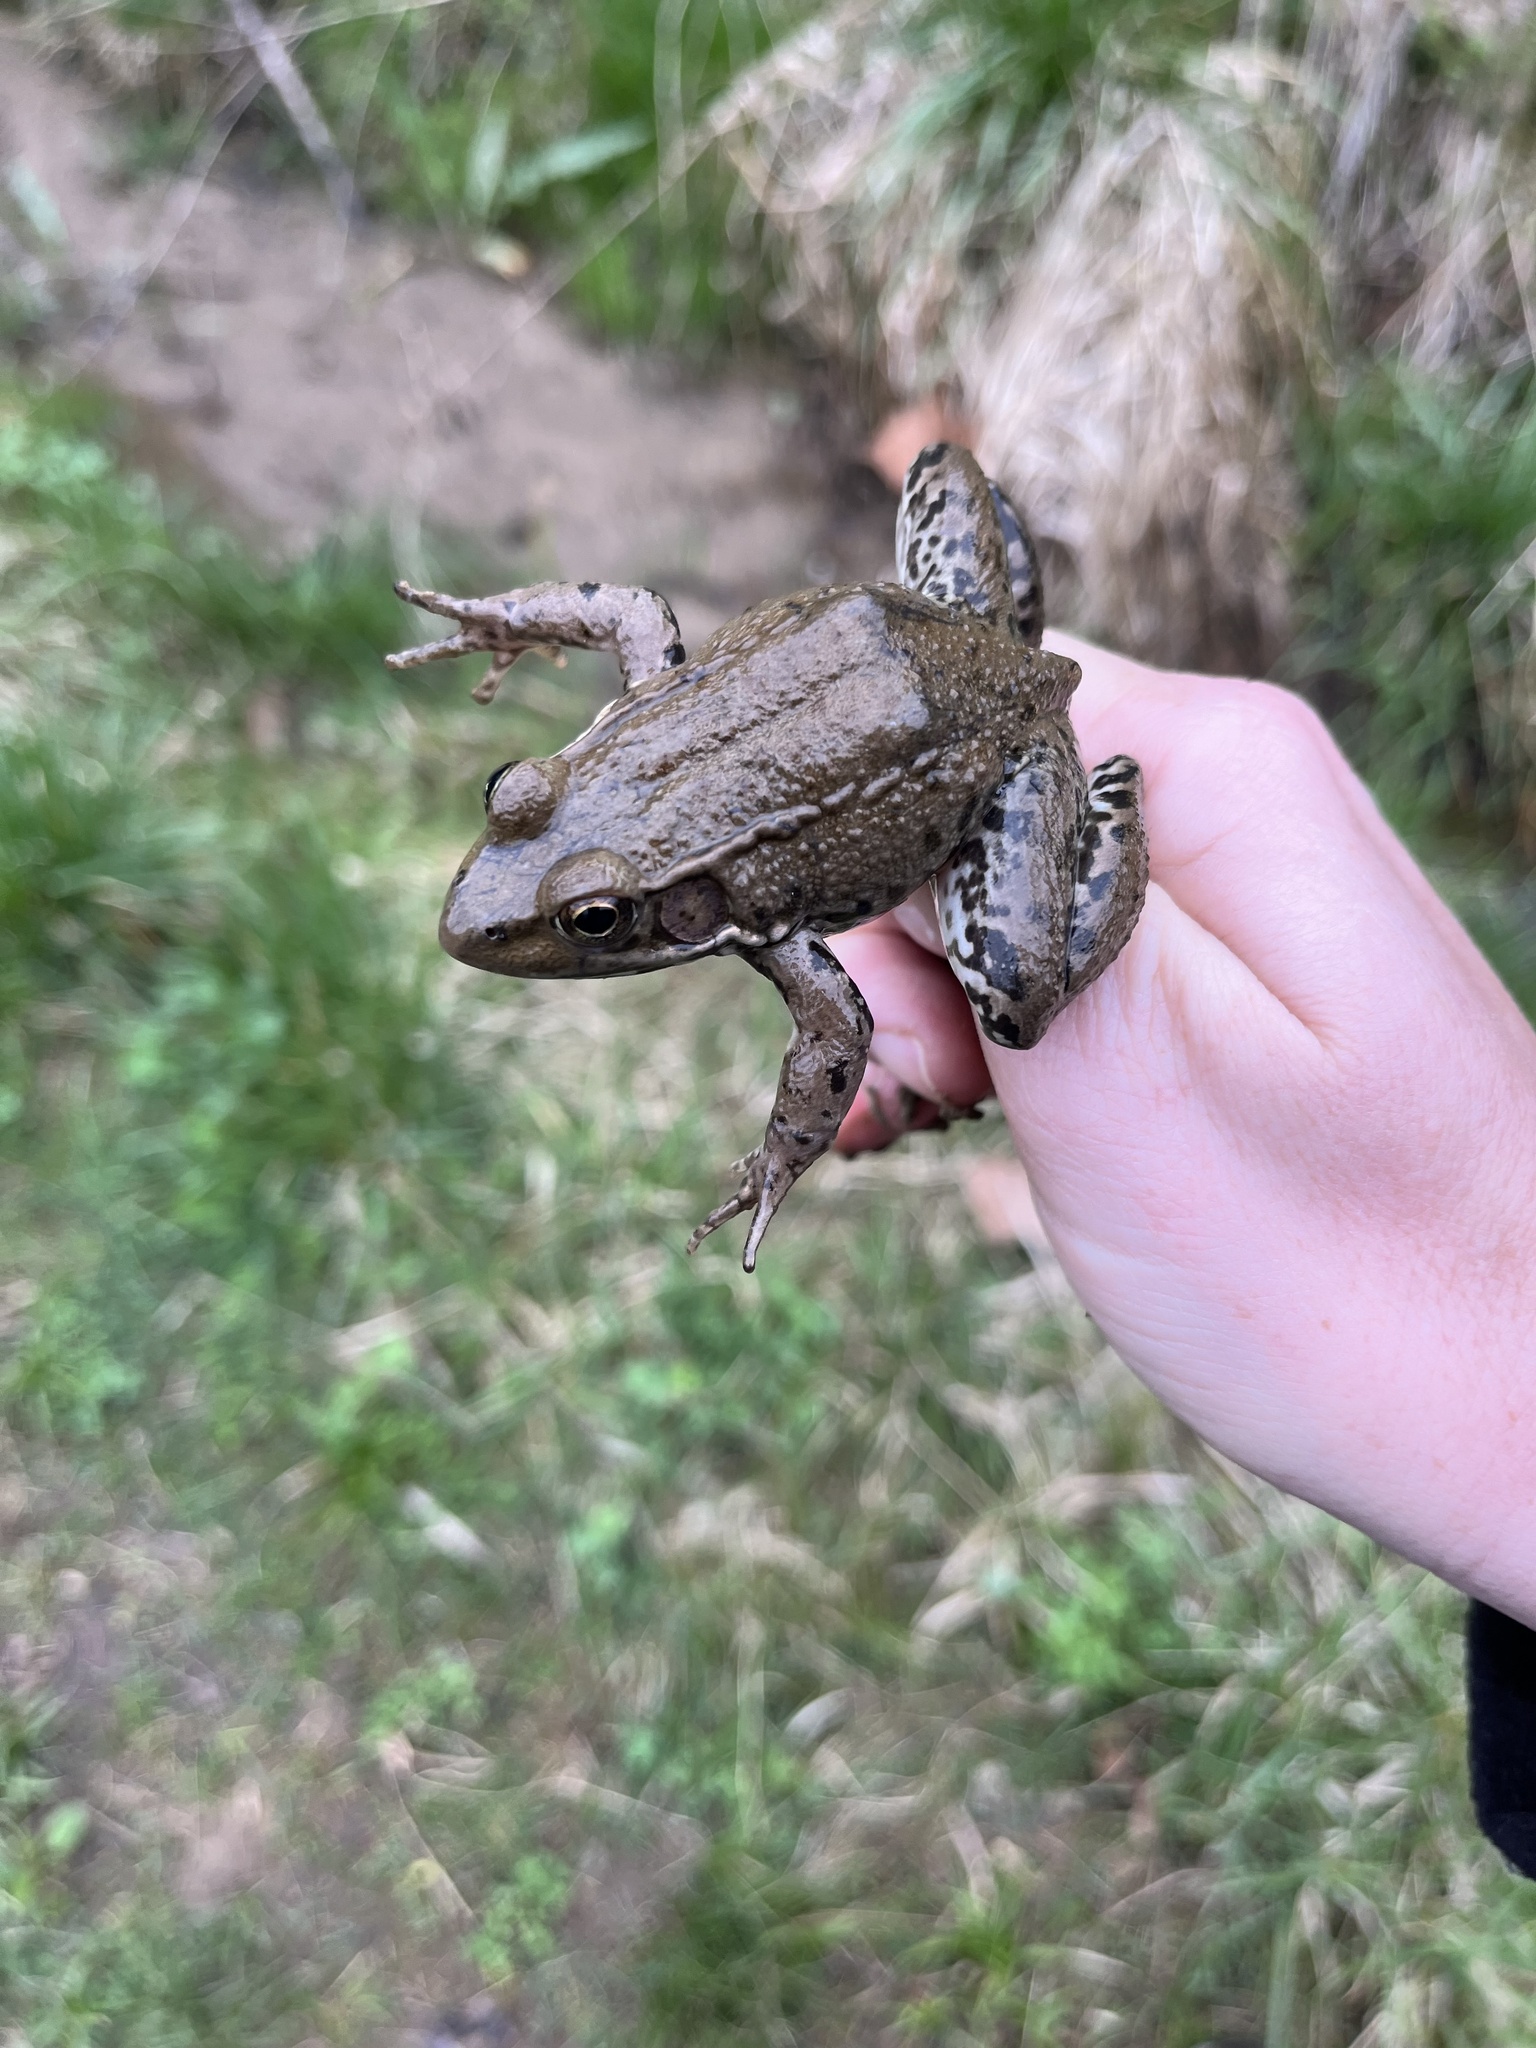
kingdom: Animalia
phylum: Chordata
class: Amphibia
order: Anura
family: Ranidae
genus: Lithobates
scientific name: Lithobates clamitans
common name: Green frog
